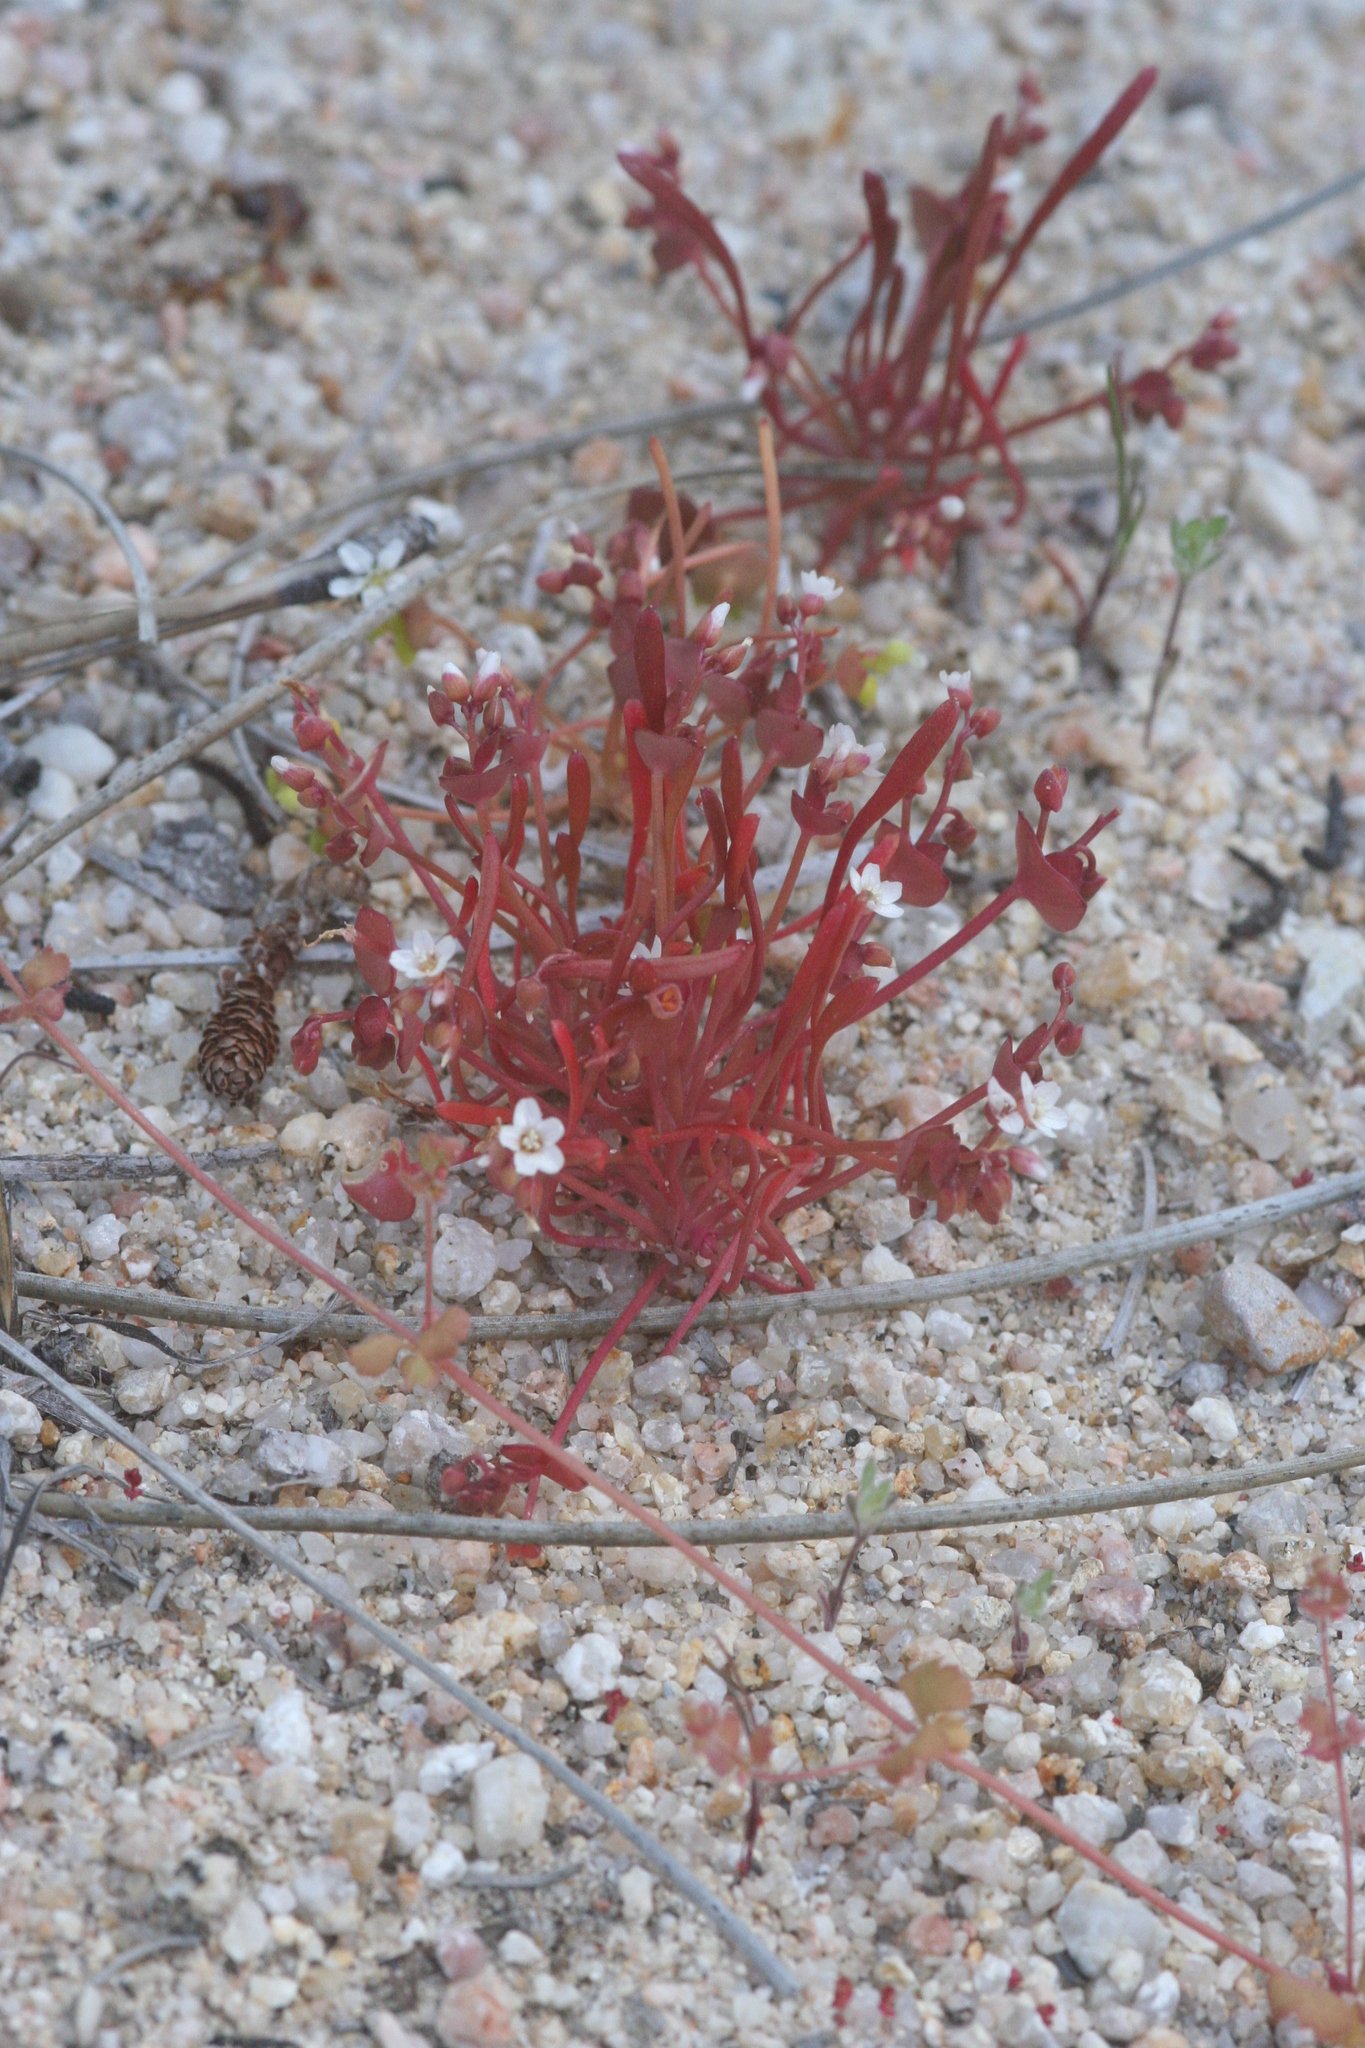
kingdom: Plantae
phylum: Tracheophyta
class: Magnoliopsida
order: Caryophyllales
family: Montiaceae
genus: Claytonia
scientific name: Claytonia parviflora
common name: Indian-lettuce
